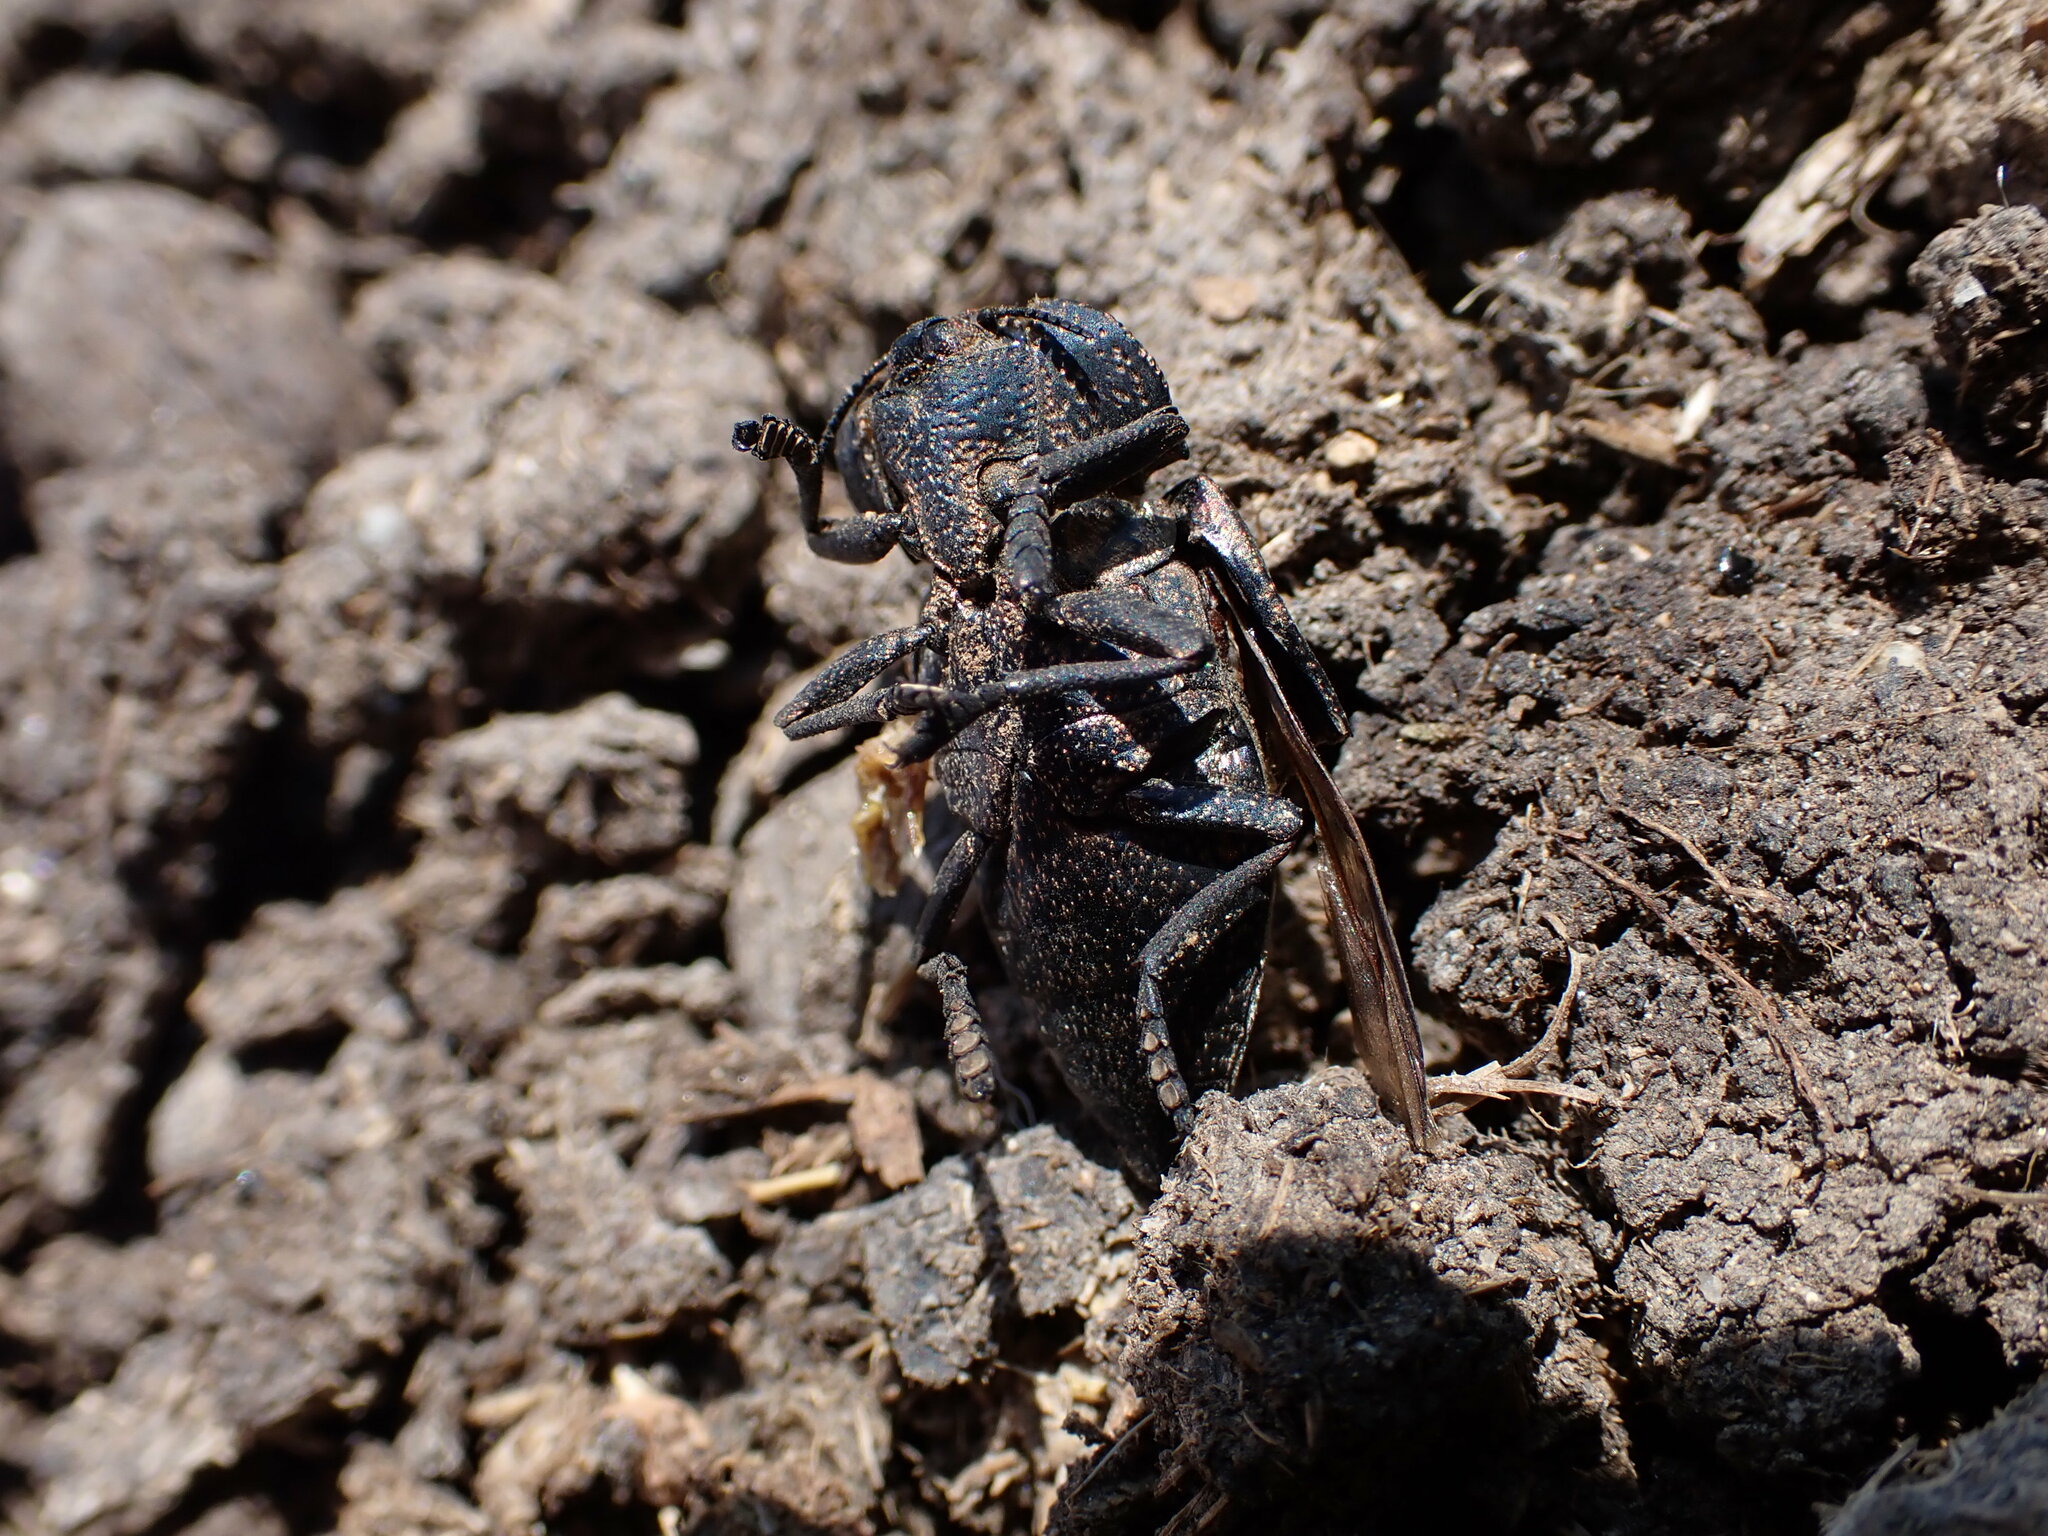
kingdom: Animalia
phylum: Arthropoda
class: Insecta
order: Coleoptera
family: Buprestidae
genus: Capnodis
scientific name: Capnodis tenebricosa
